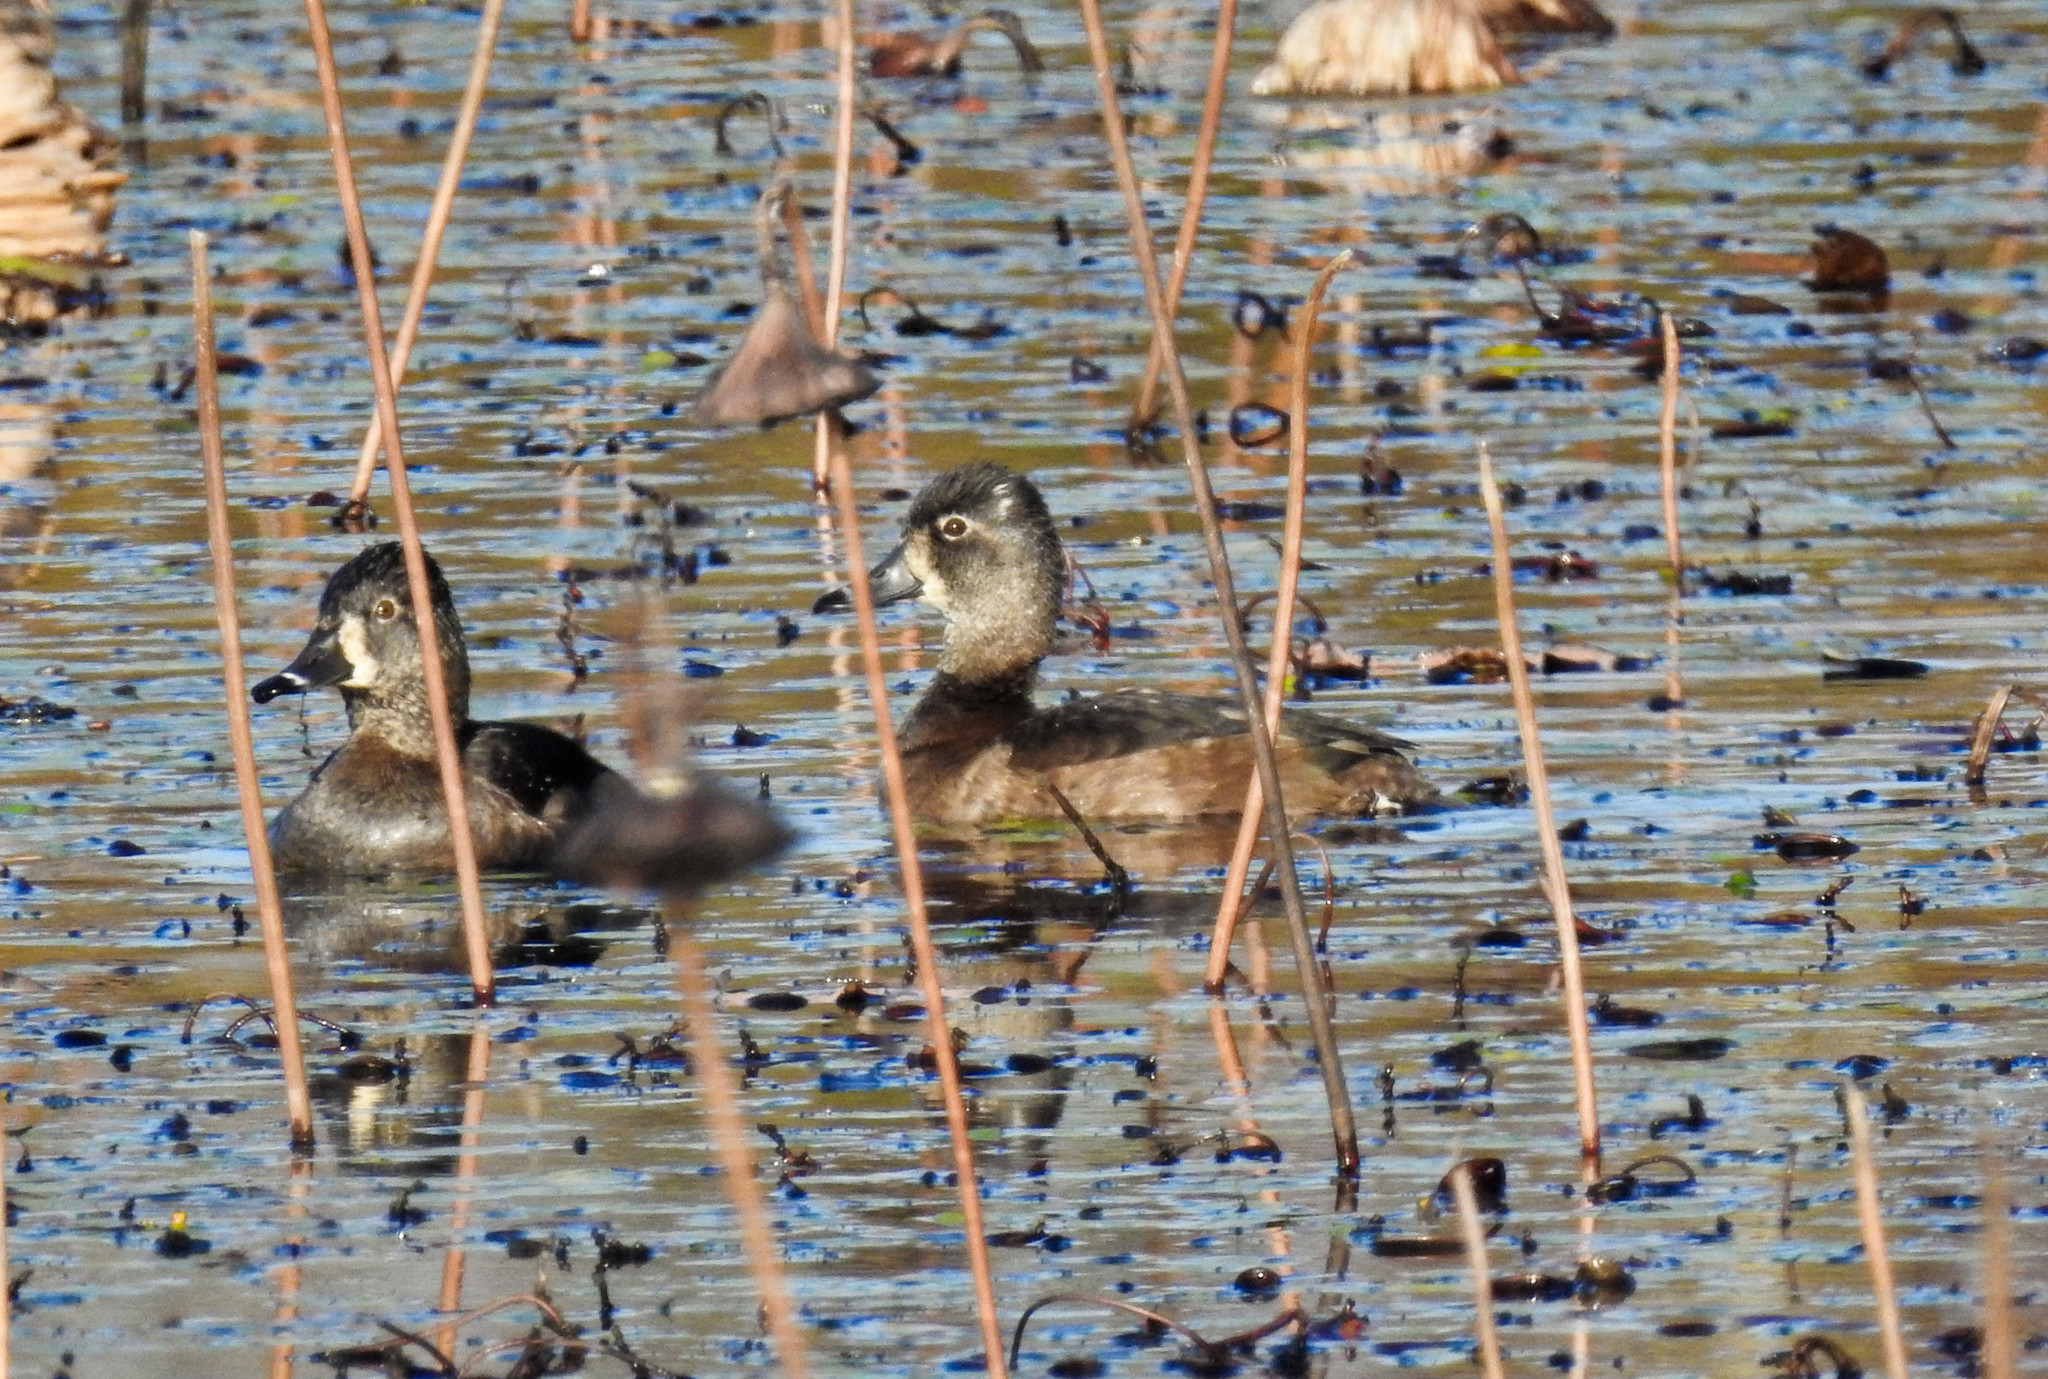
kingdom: Animalia
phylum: Chordata
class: Aves
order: Anseriformes
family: Anatidae
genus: Aythya
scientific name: Aythya collaris
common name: Ring-necked duck
